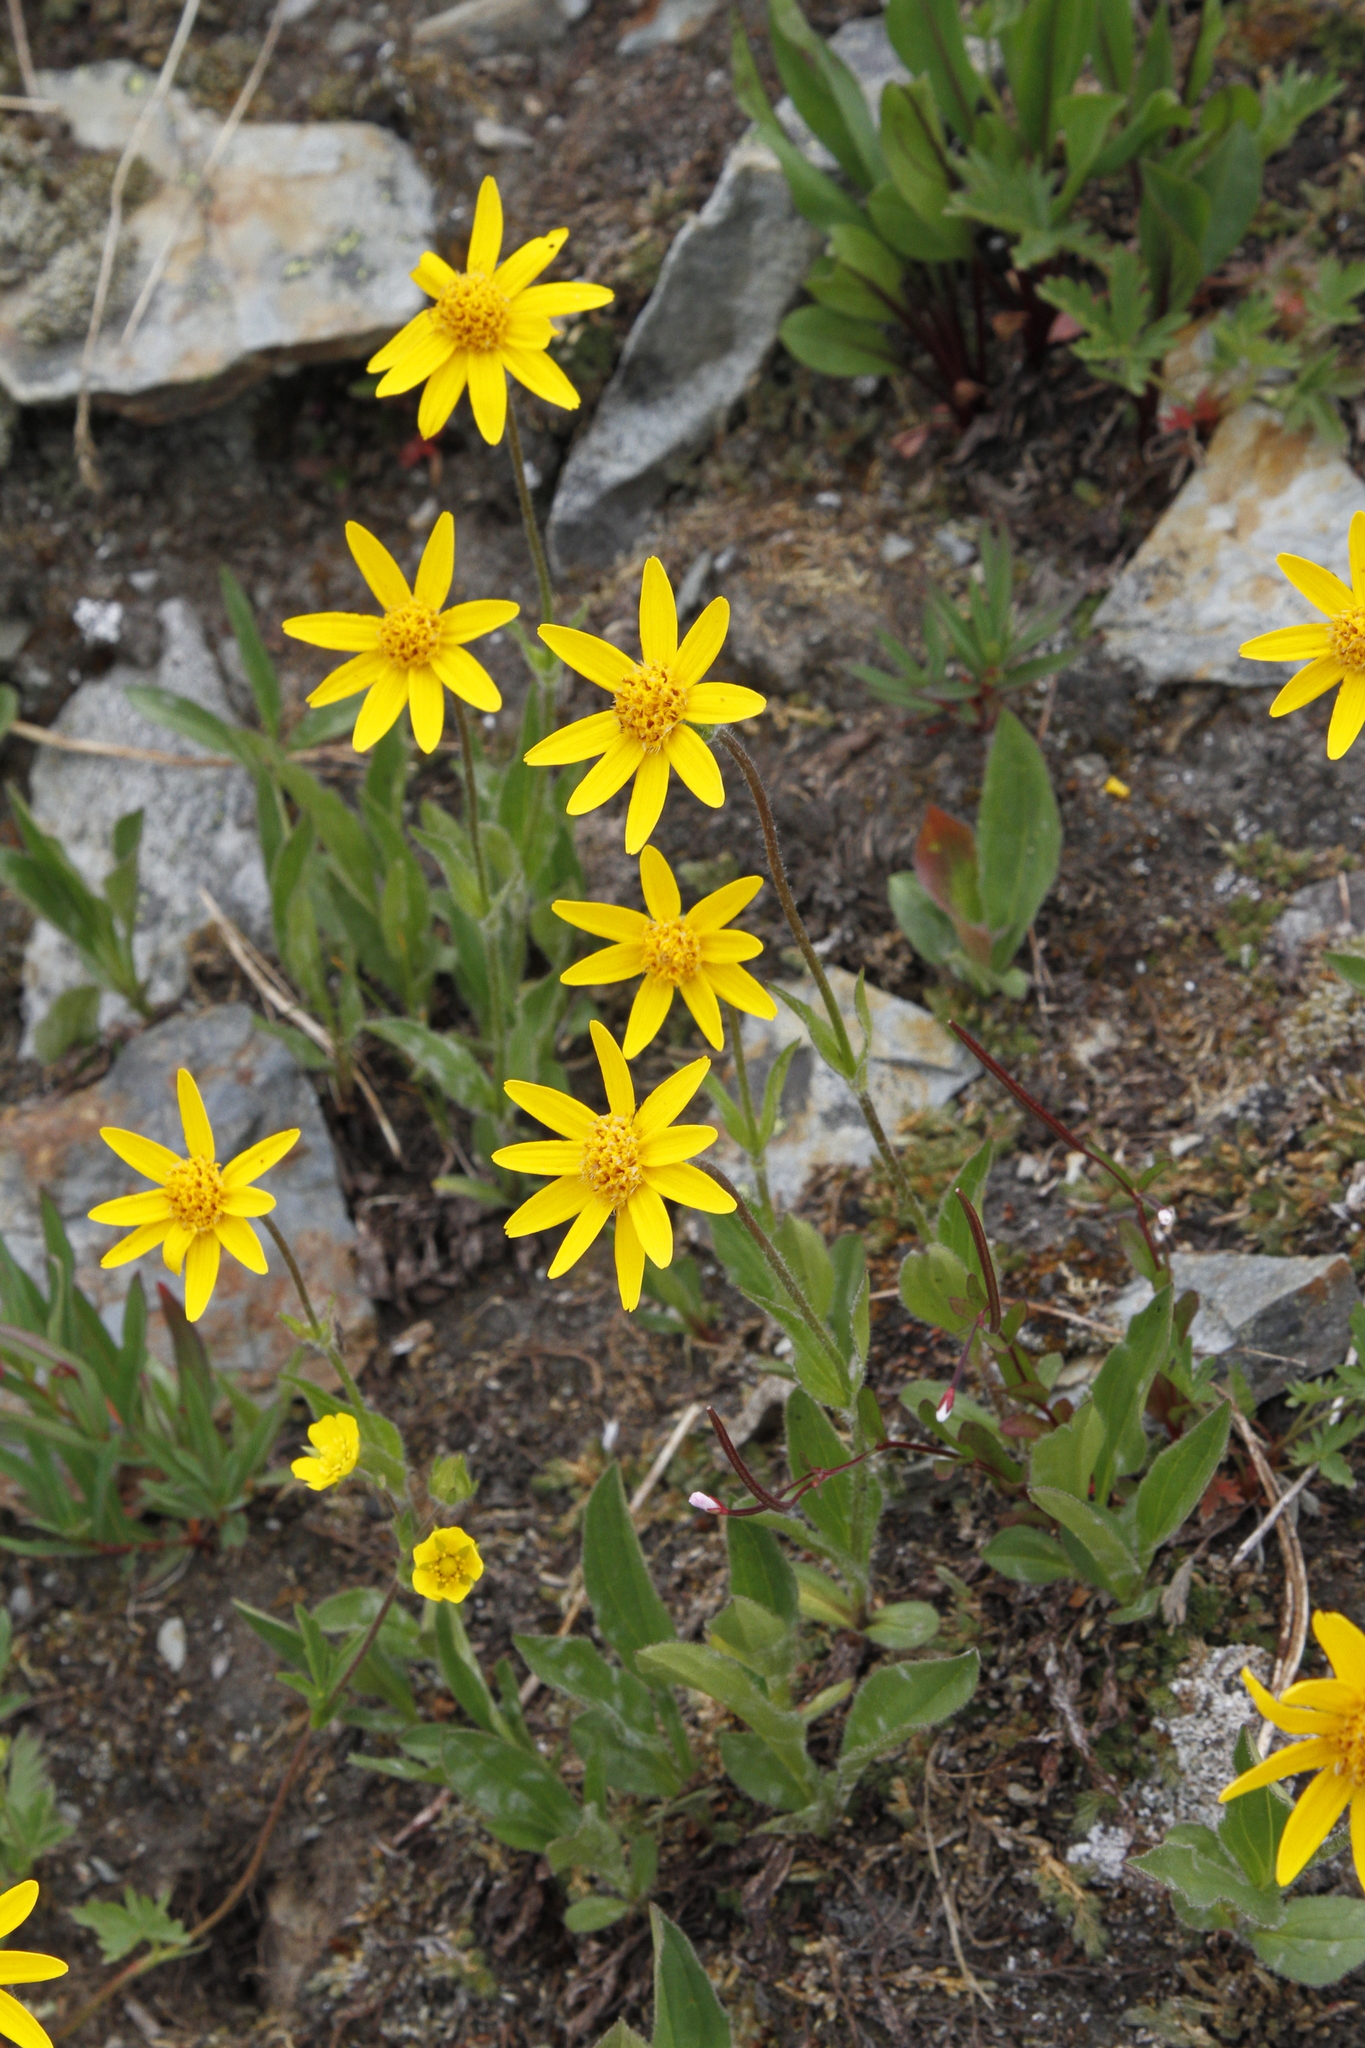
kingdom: Plantae
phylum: Tracheophyta
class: Magnoliopsida
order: Asterales
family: Asteraceae
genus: Arnica
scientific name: Arnica rydbergii
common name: Rydberg's arnica
